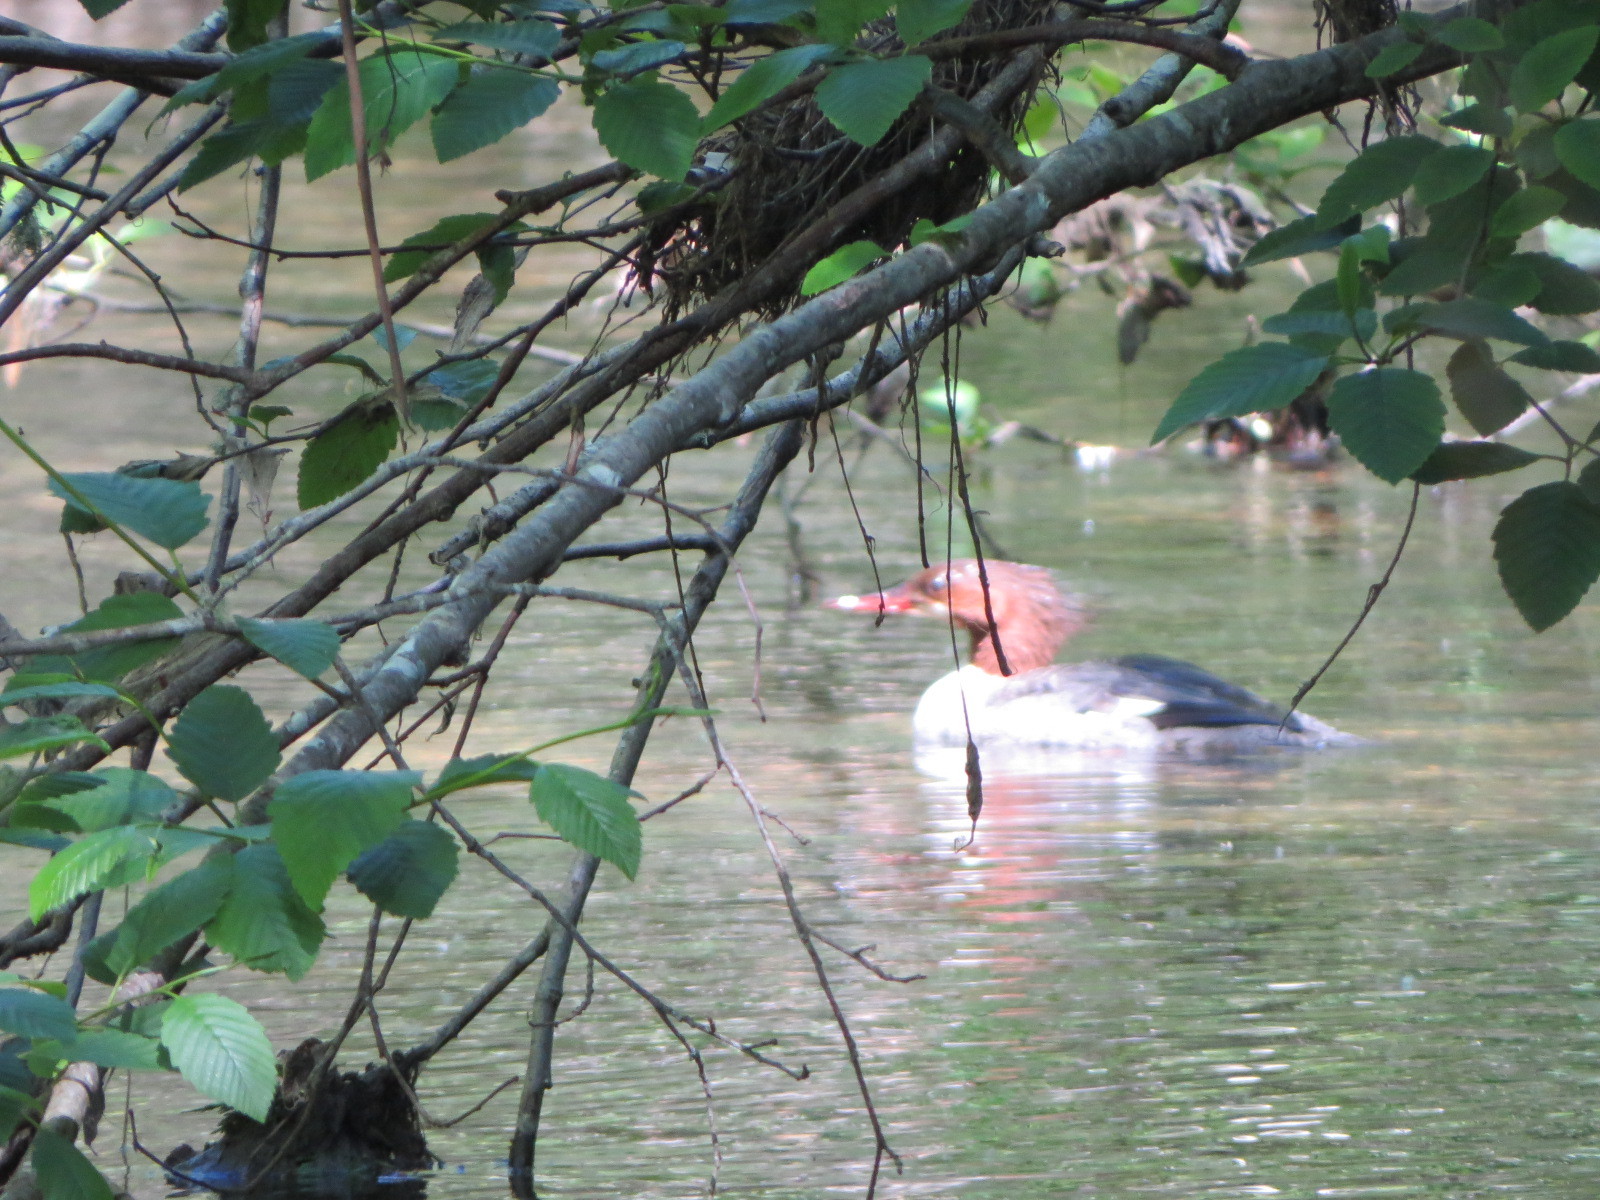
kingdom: Animalia
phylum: Chordata
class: Aves
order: Anseriformes
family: Anatidae
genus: Mergus
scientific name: Mergus merganser
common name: Common merganser
